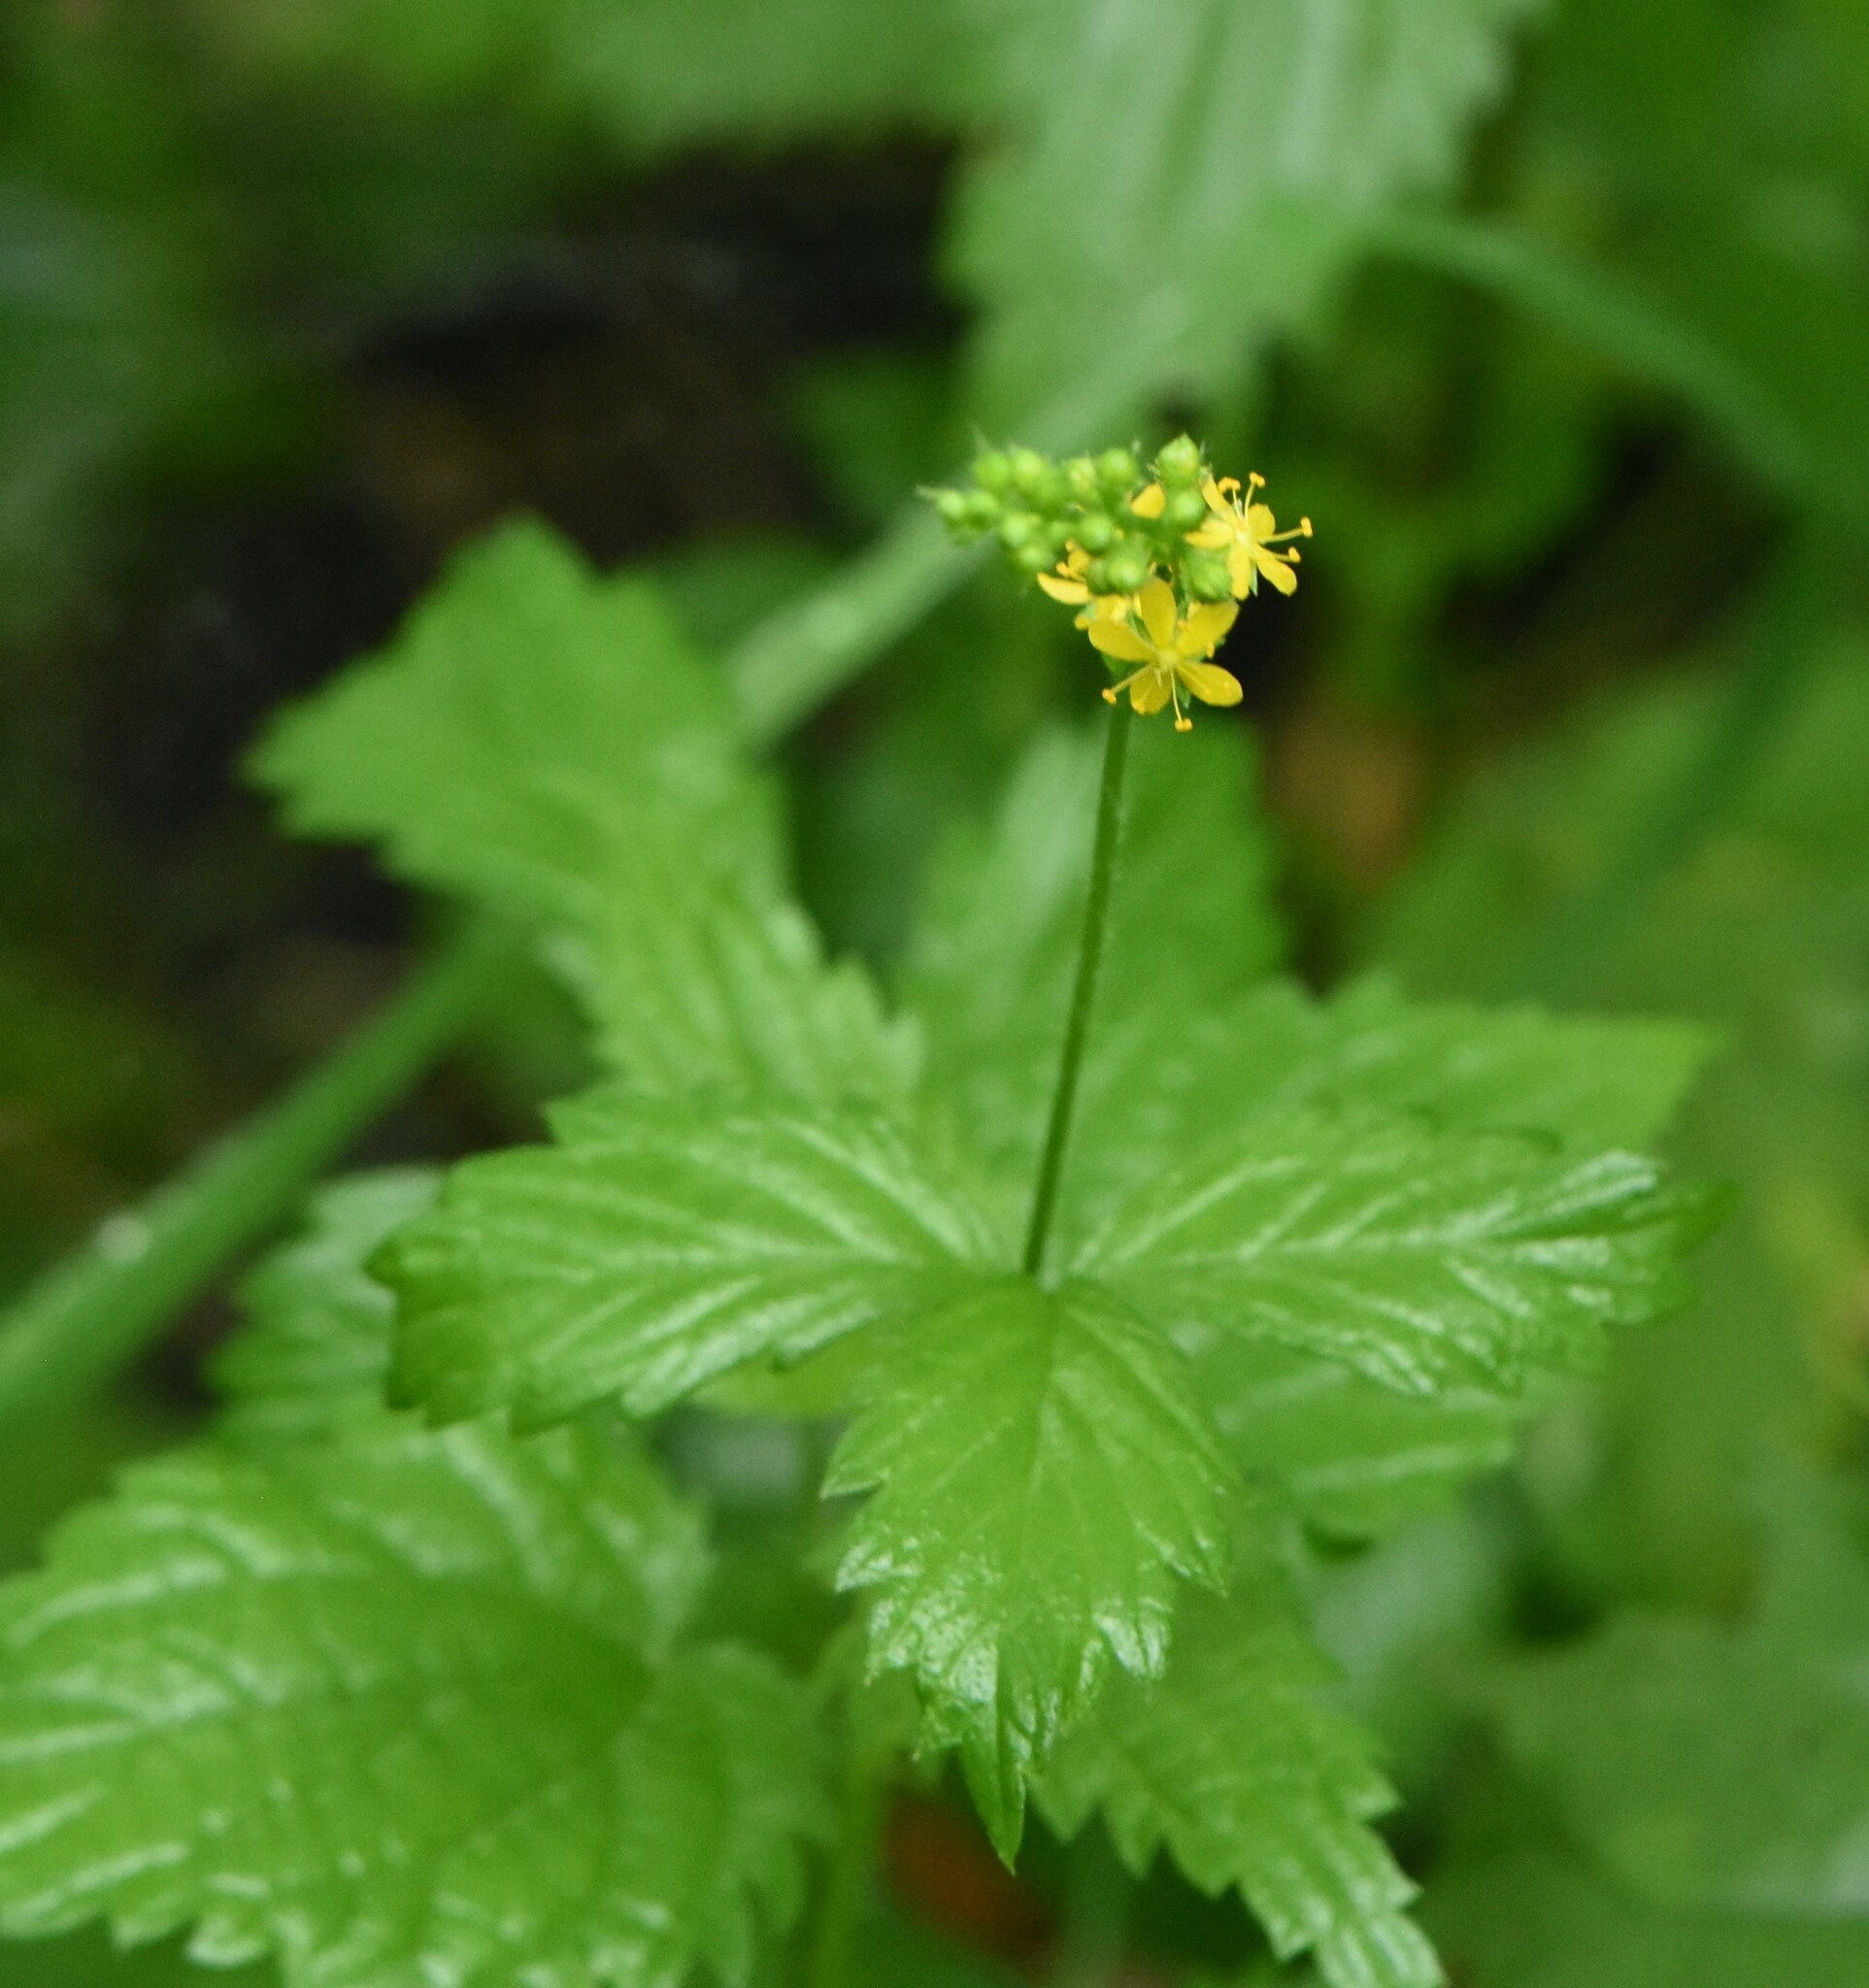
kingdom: Plantae
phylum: Tracheophyta
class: Magnoliopsida
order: Rosales
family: Rosaceae
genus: Agrimonia
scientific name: Agrimonia pilosa
